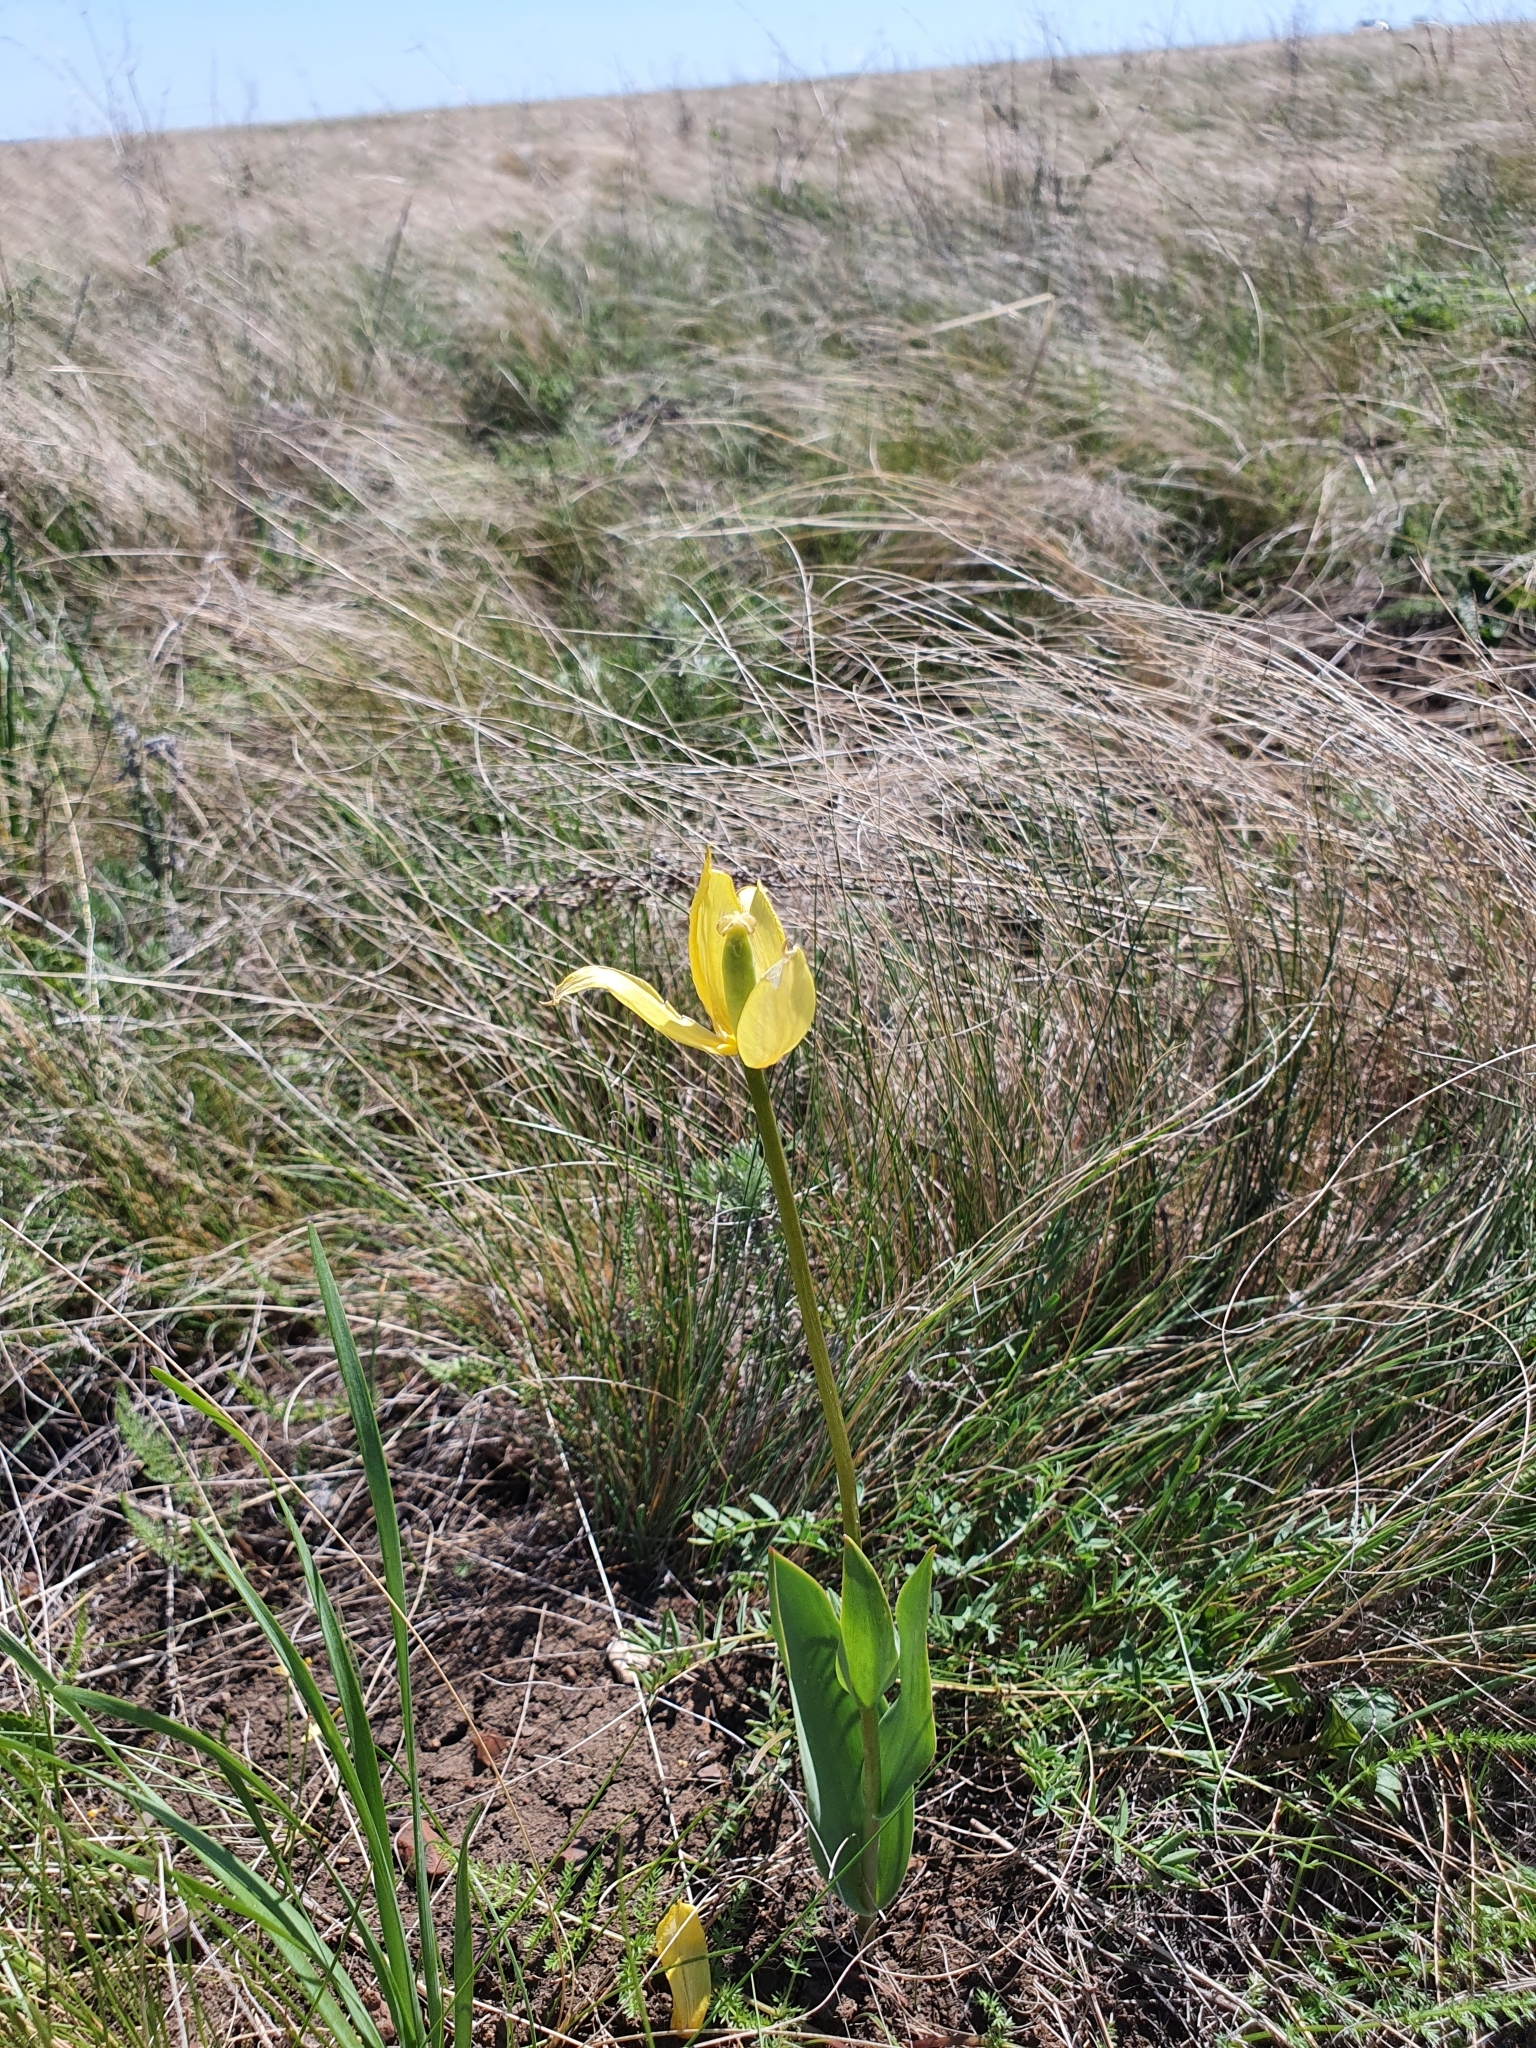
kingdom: Plantae
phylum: Tracheophyta
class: Liliopsida
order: Liliales
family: Liliaceae
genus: Tulipa
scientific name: Tulipa suaveolens
